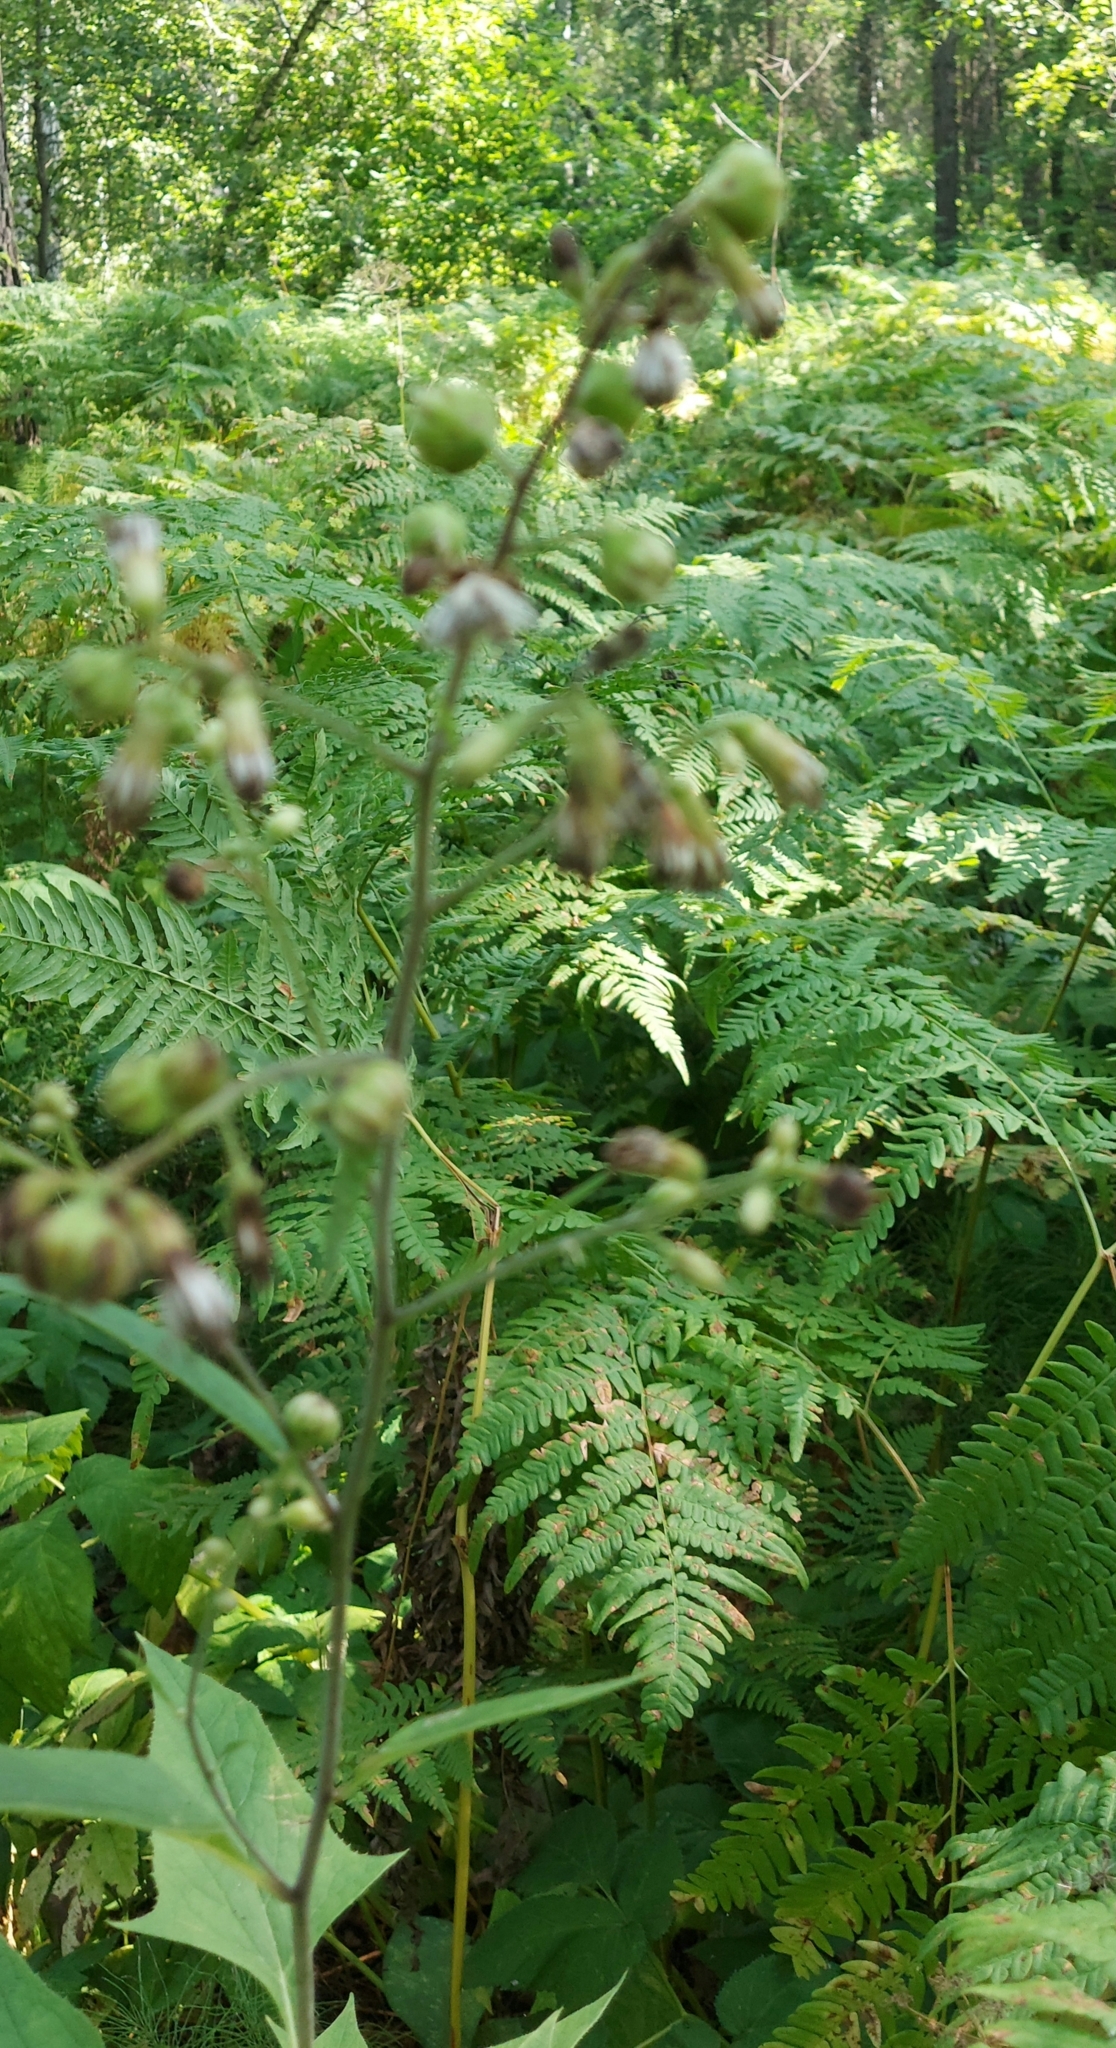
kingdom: Plantae
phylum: Tracheophyta
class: Magnoliopsida
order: Asterales
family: Asteraceae
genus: Parasenecio
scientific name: Parasenecio hastatus
